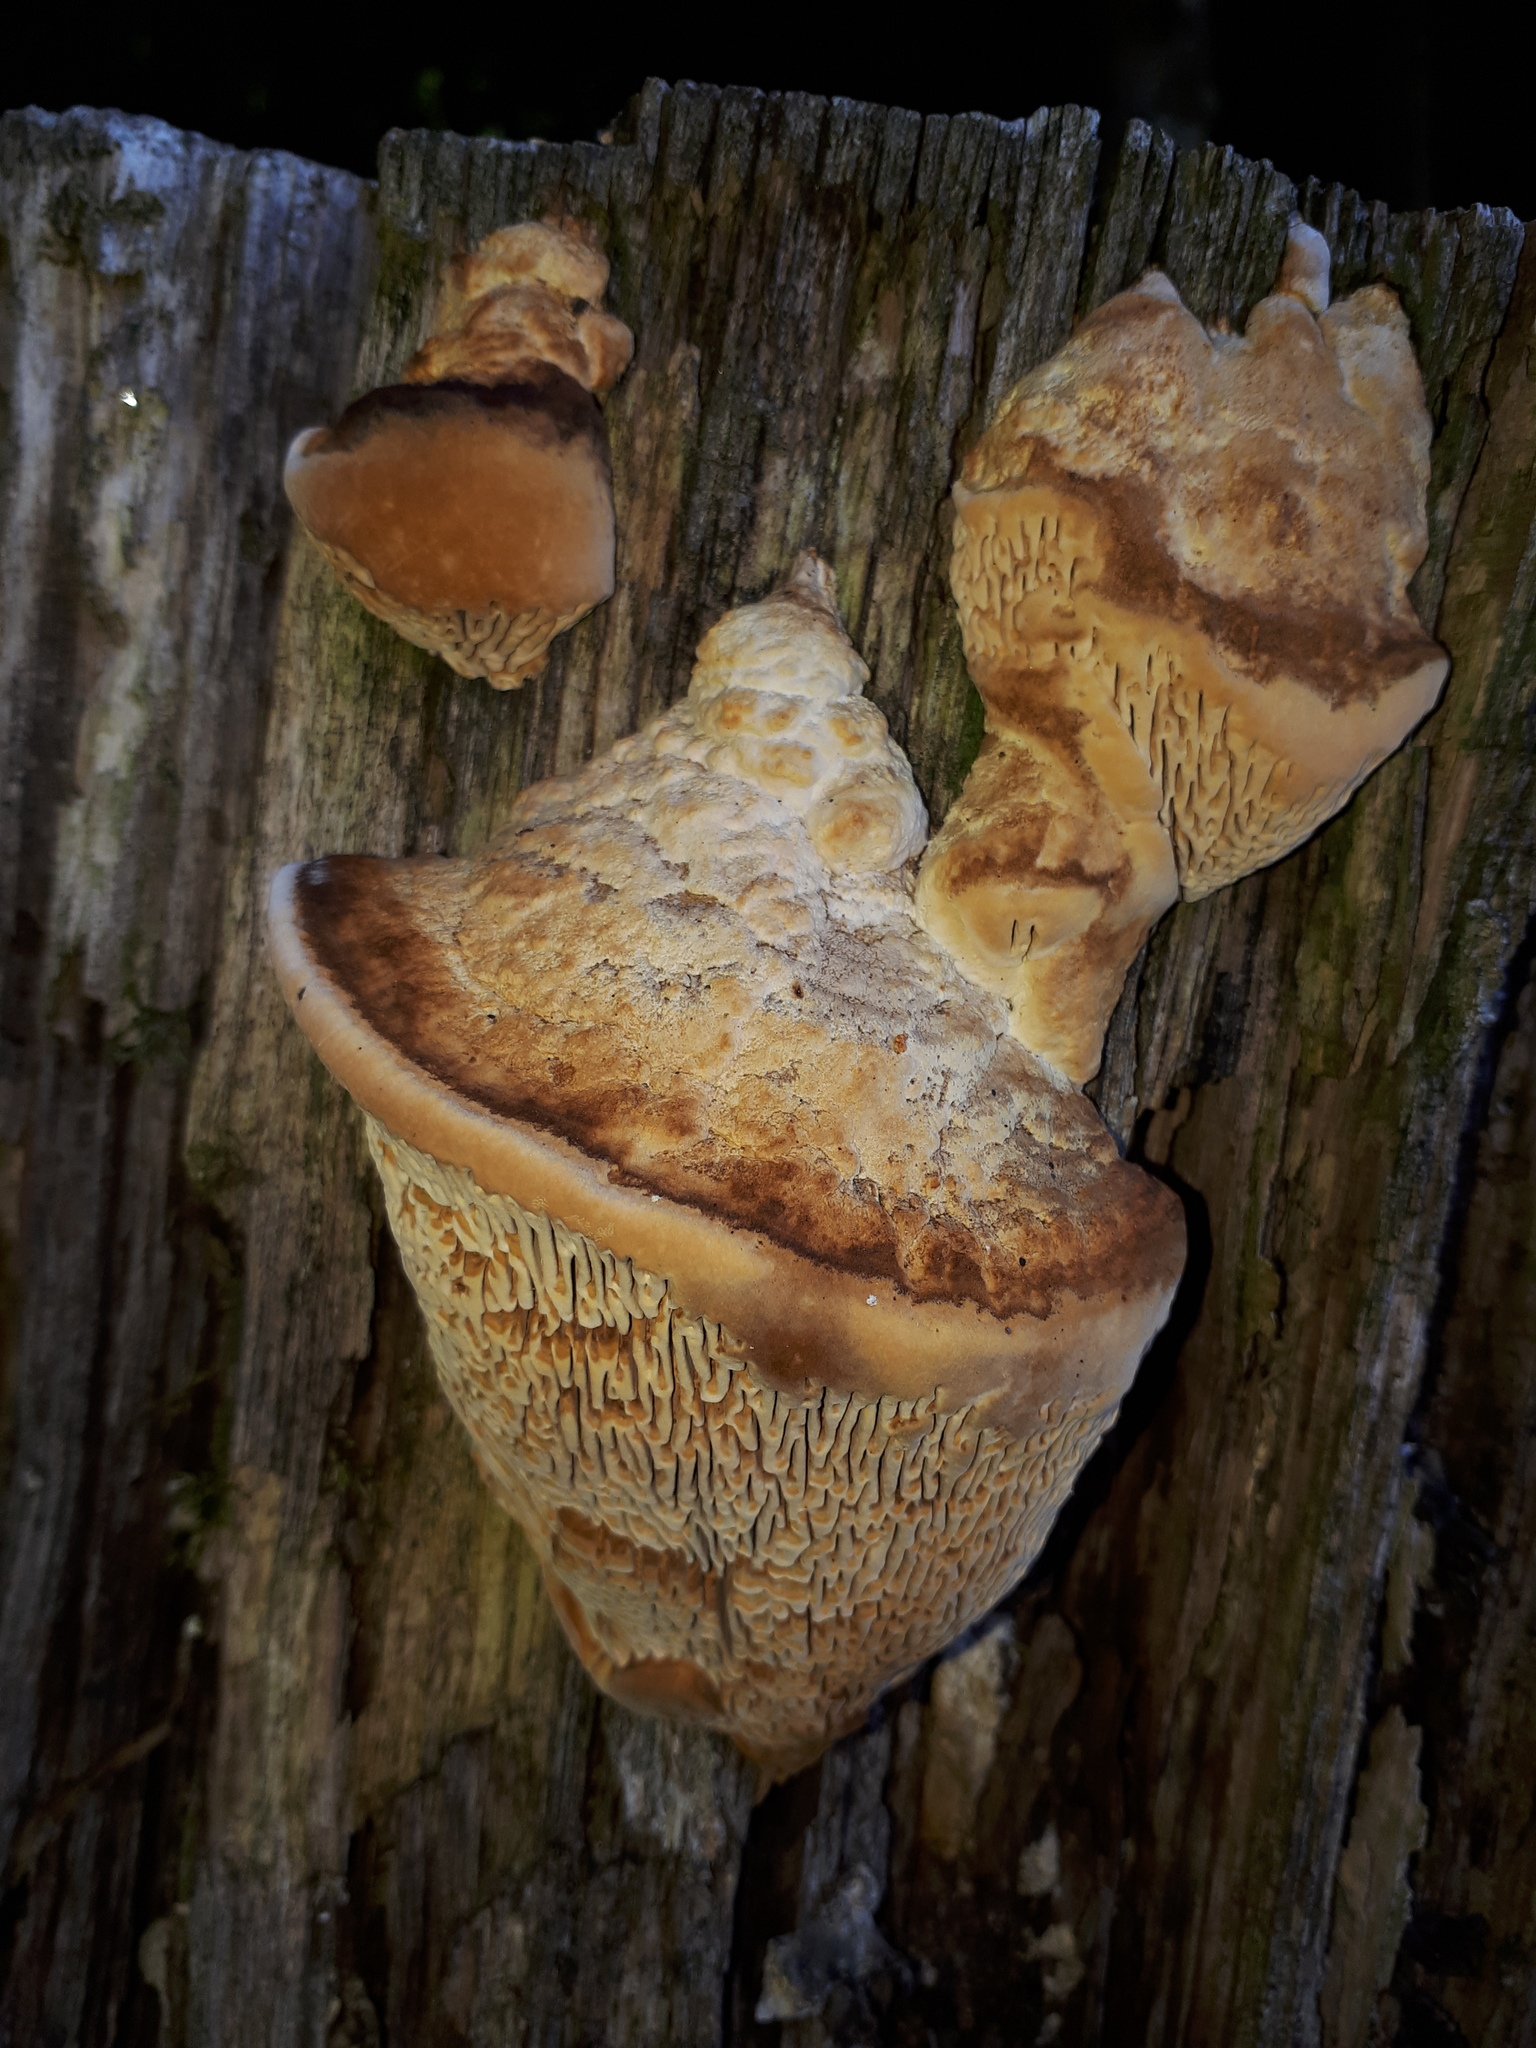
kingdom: Fungi
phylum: Basidiomycota
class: Agaricomycetes
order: Polyporales
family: Fomitopsidaceae
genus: Fomitopsis
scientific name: Fomitopsis
